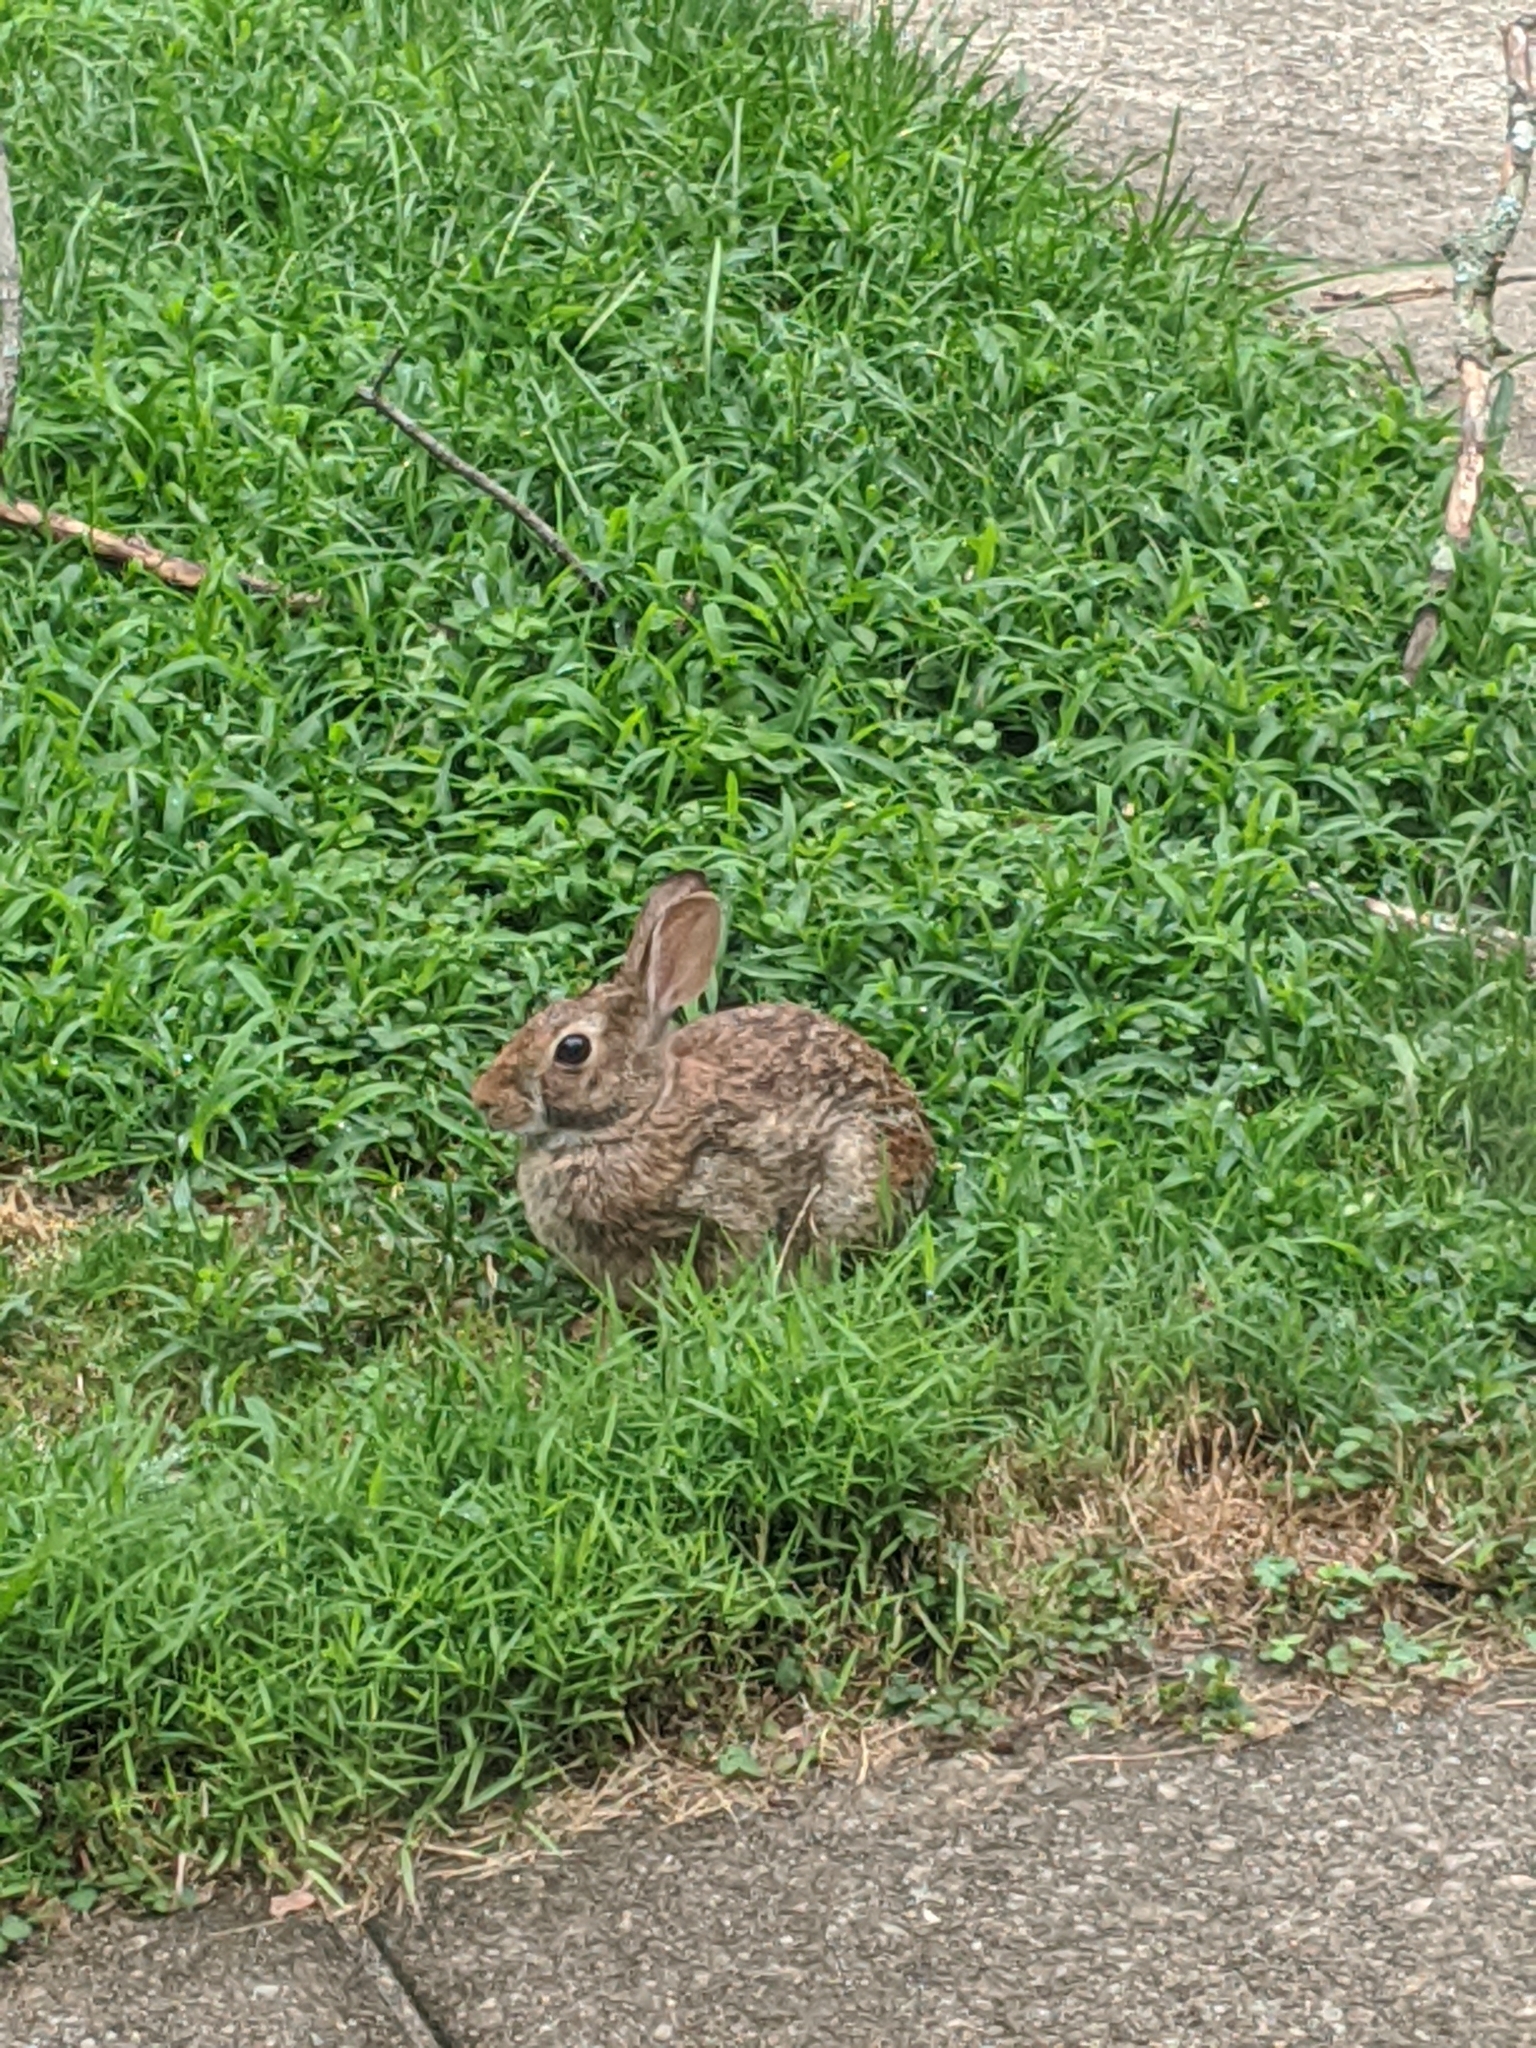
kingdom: Animalia
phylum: Chordata
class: Mammalia
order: Lagomorpha
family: Leporidae
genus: Sylvilagus
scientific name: Sylvilagus floridanus
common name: Eastern cottontail
